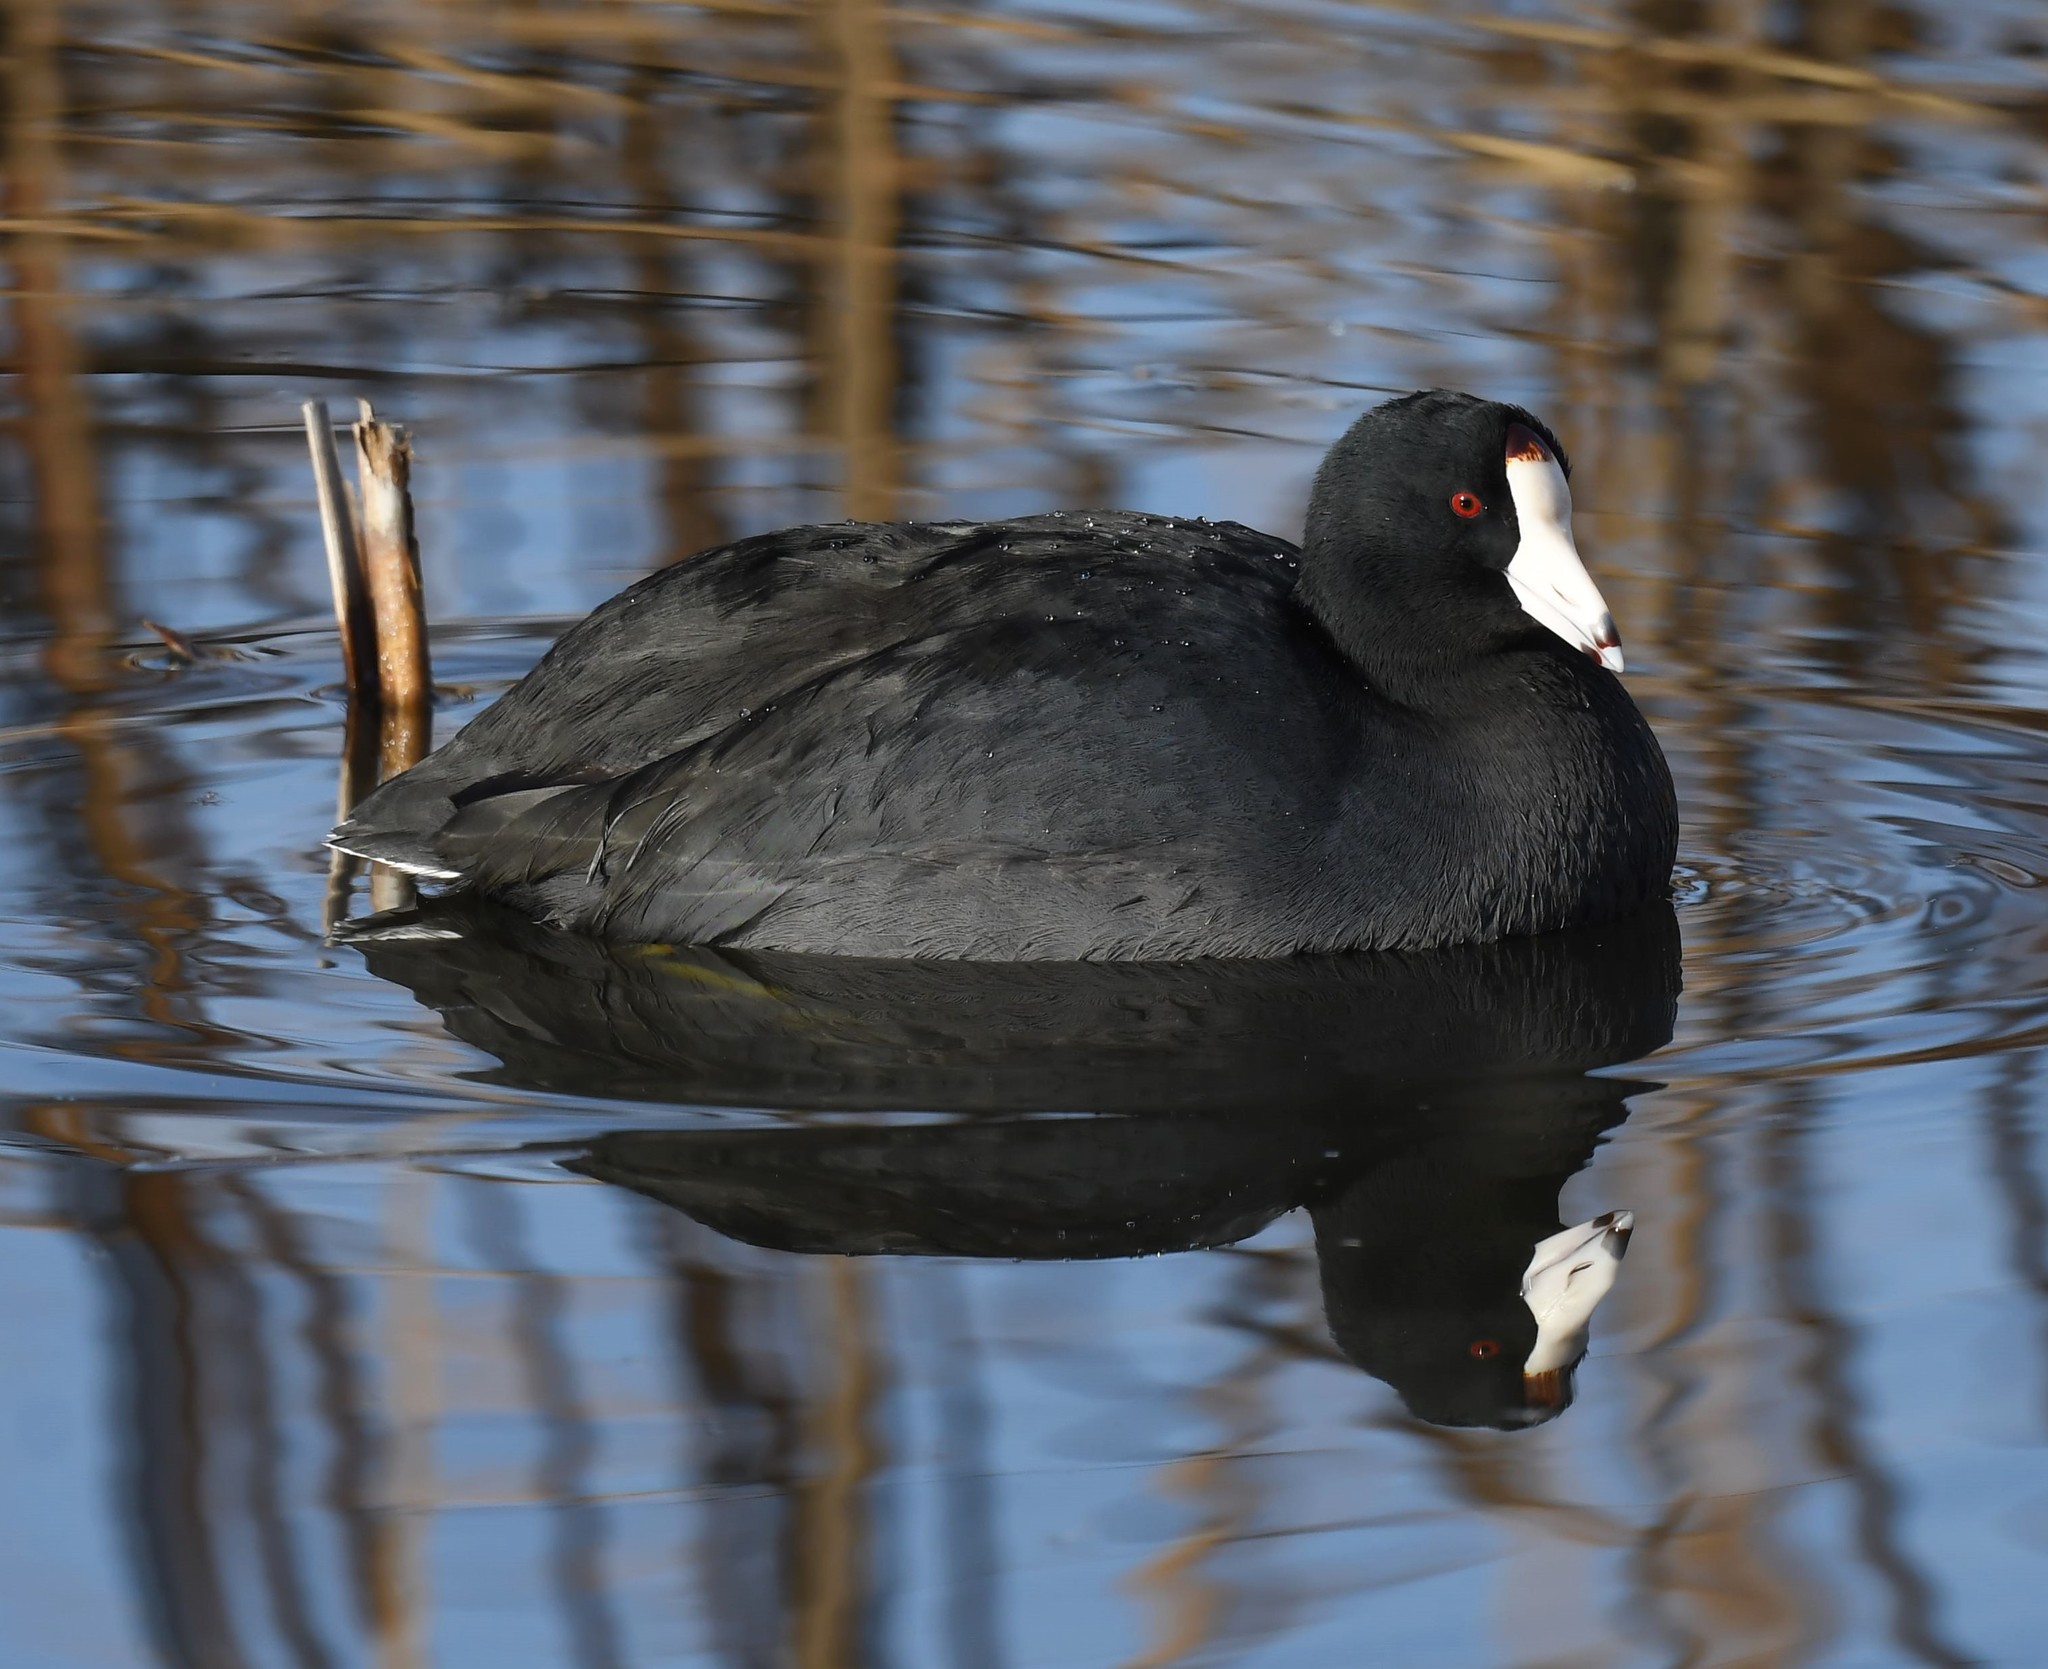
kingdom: Animalia
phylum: Chordata
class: Aves
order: Gruiformes
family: Rallidae
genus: Fulica
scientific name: Fulica americana
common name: American coot
